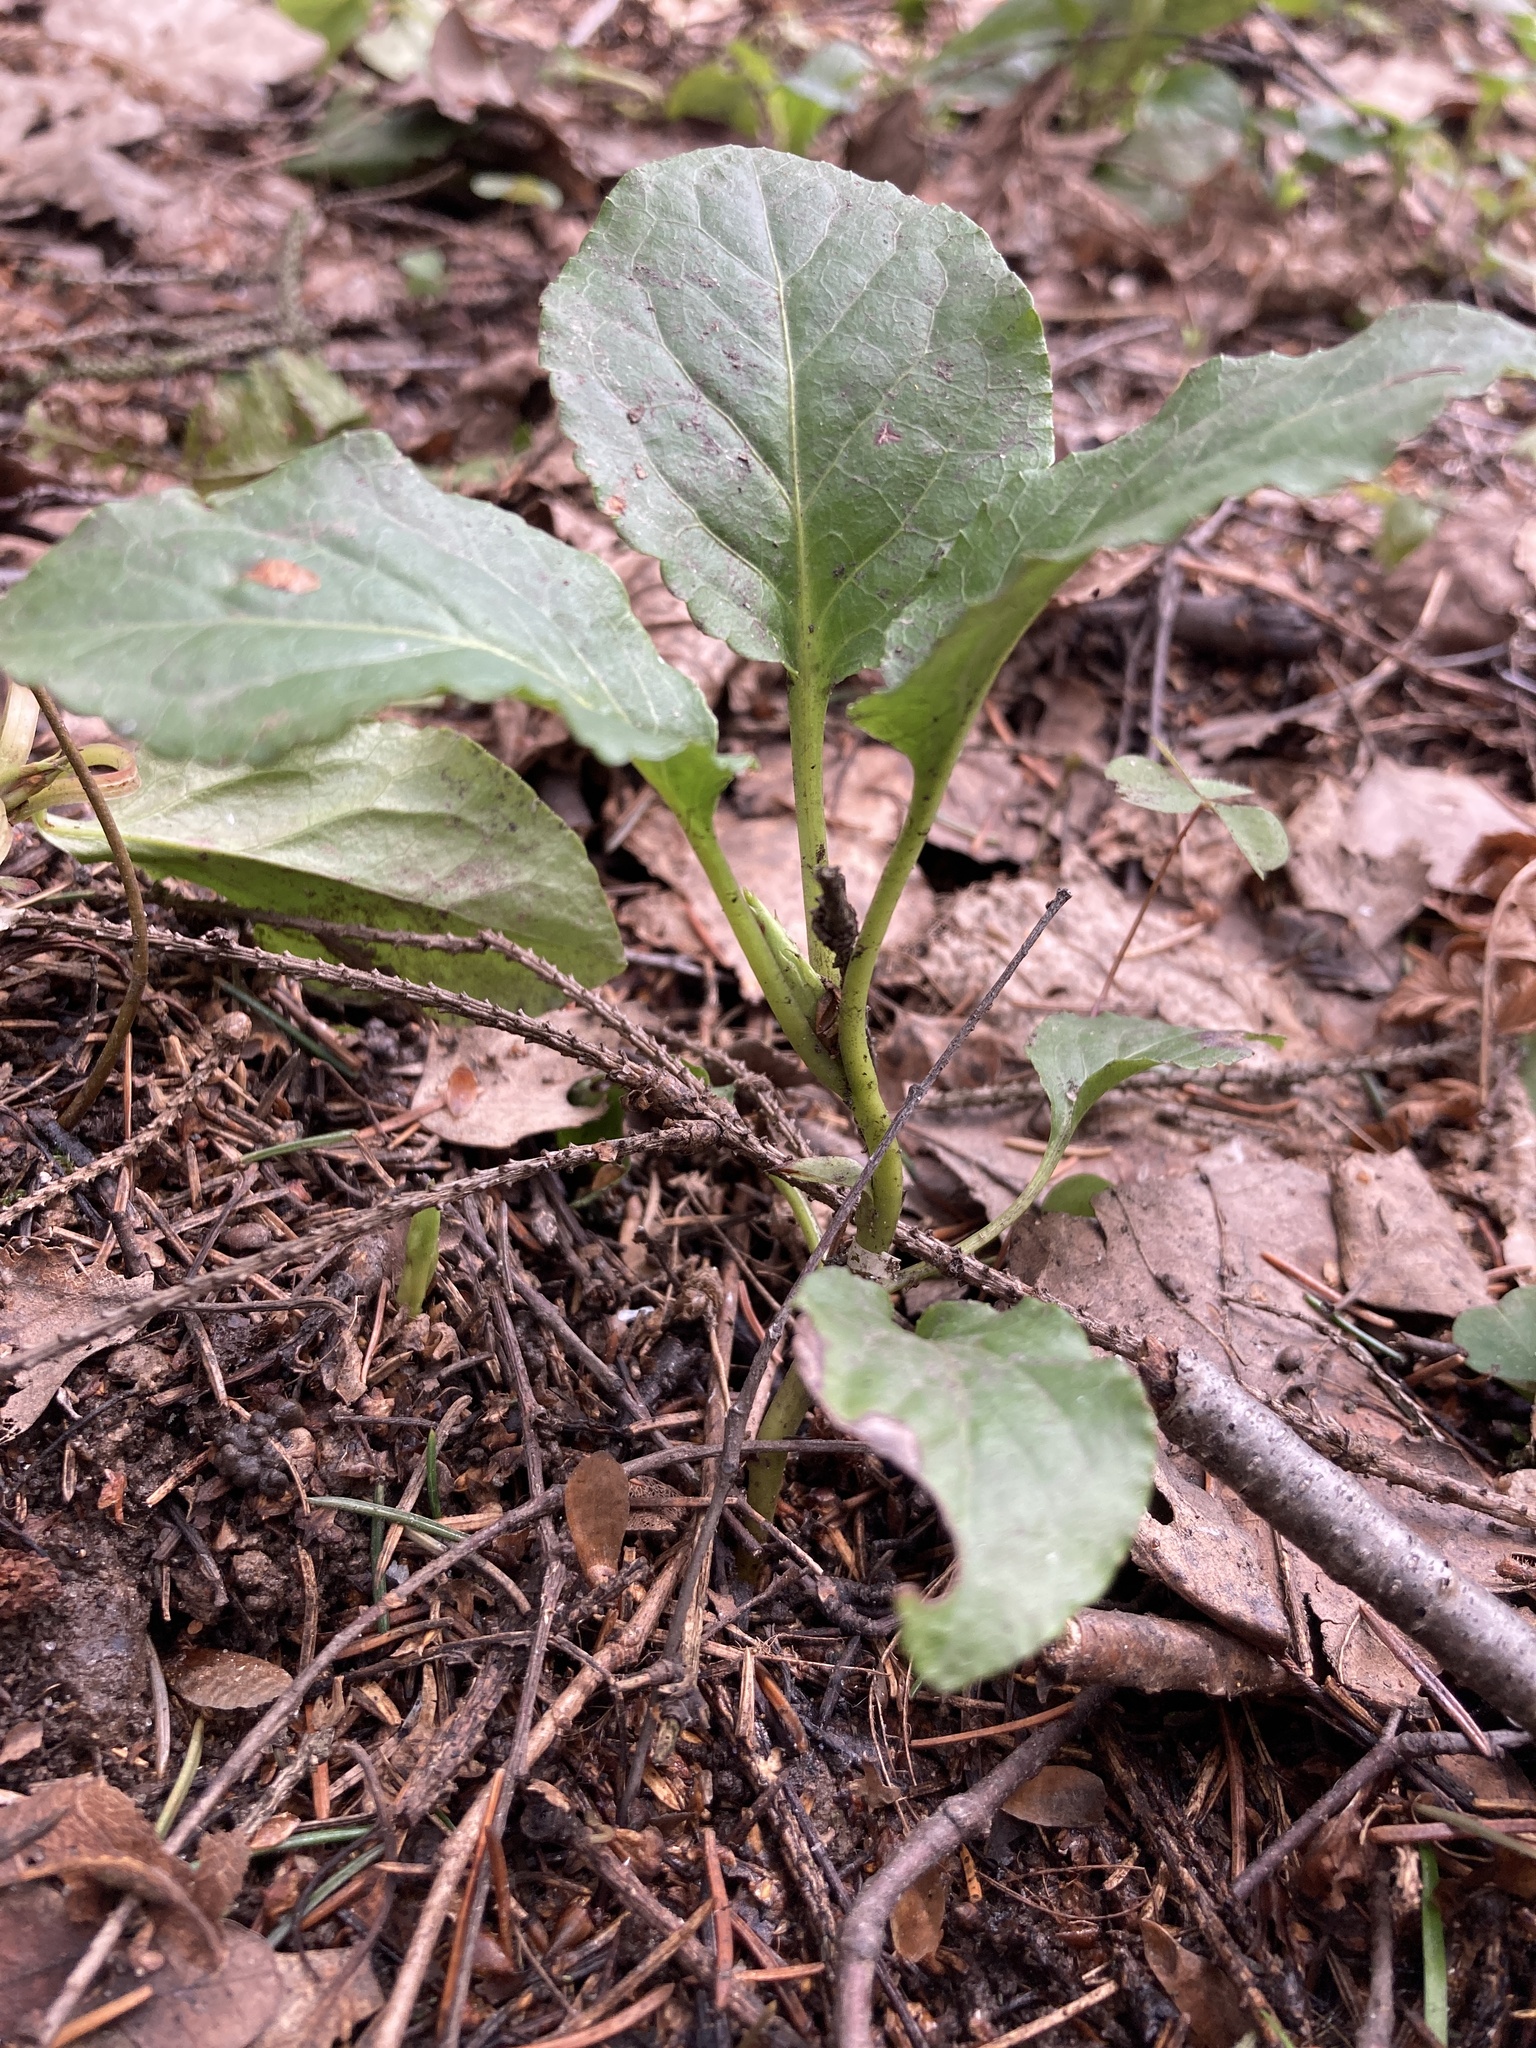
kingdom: Plantae
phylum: Tracheophyta
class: Magnoliopsida
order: Ericales
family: Ericaceae
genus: Pyrola
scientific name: Pyrola minor
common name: Common wintergreen
